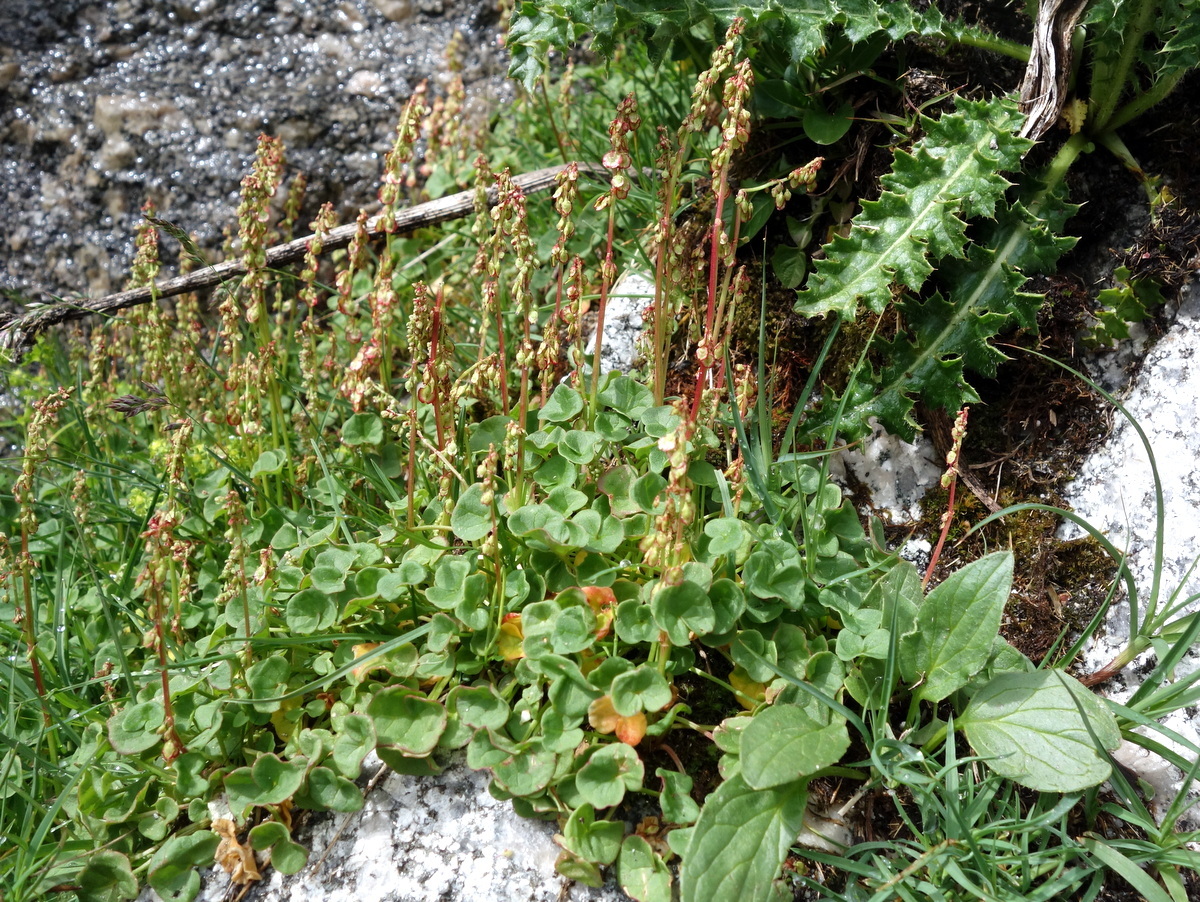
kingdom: Plantae
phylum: Tracheophyta
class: Magnoliopsida
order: Caryophyllales
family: Polygonaceae
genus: Oxyria
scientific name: Oxyria digyna
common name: Alpine mountain-sorrel
